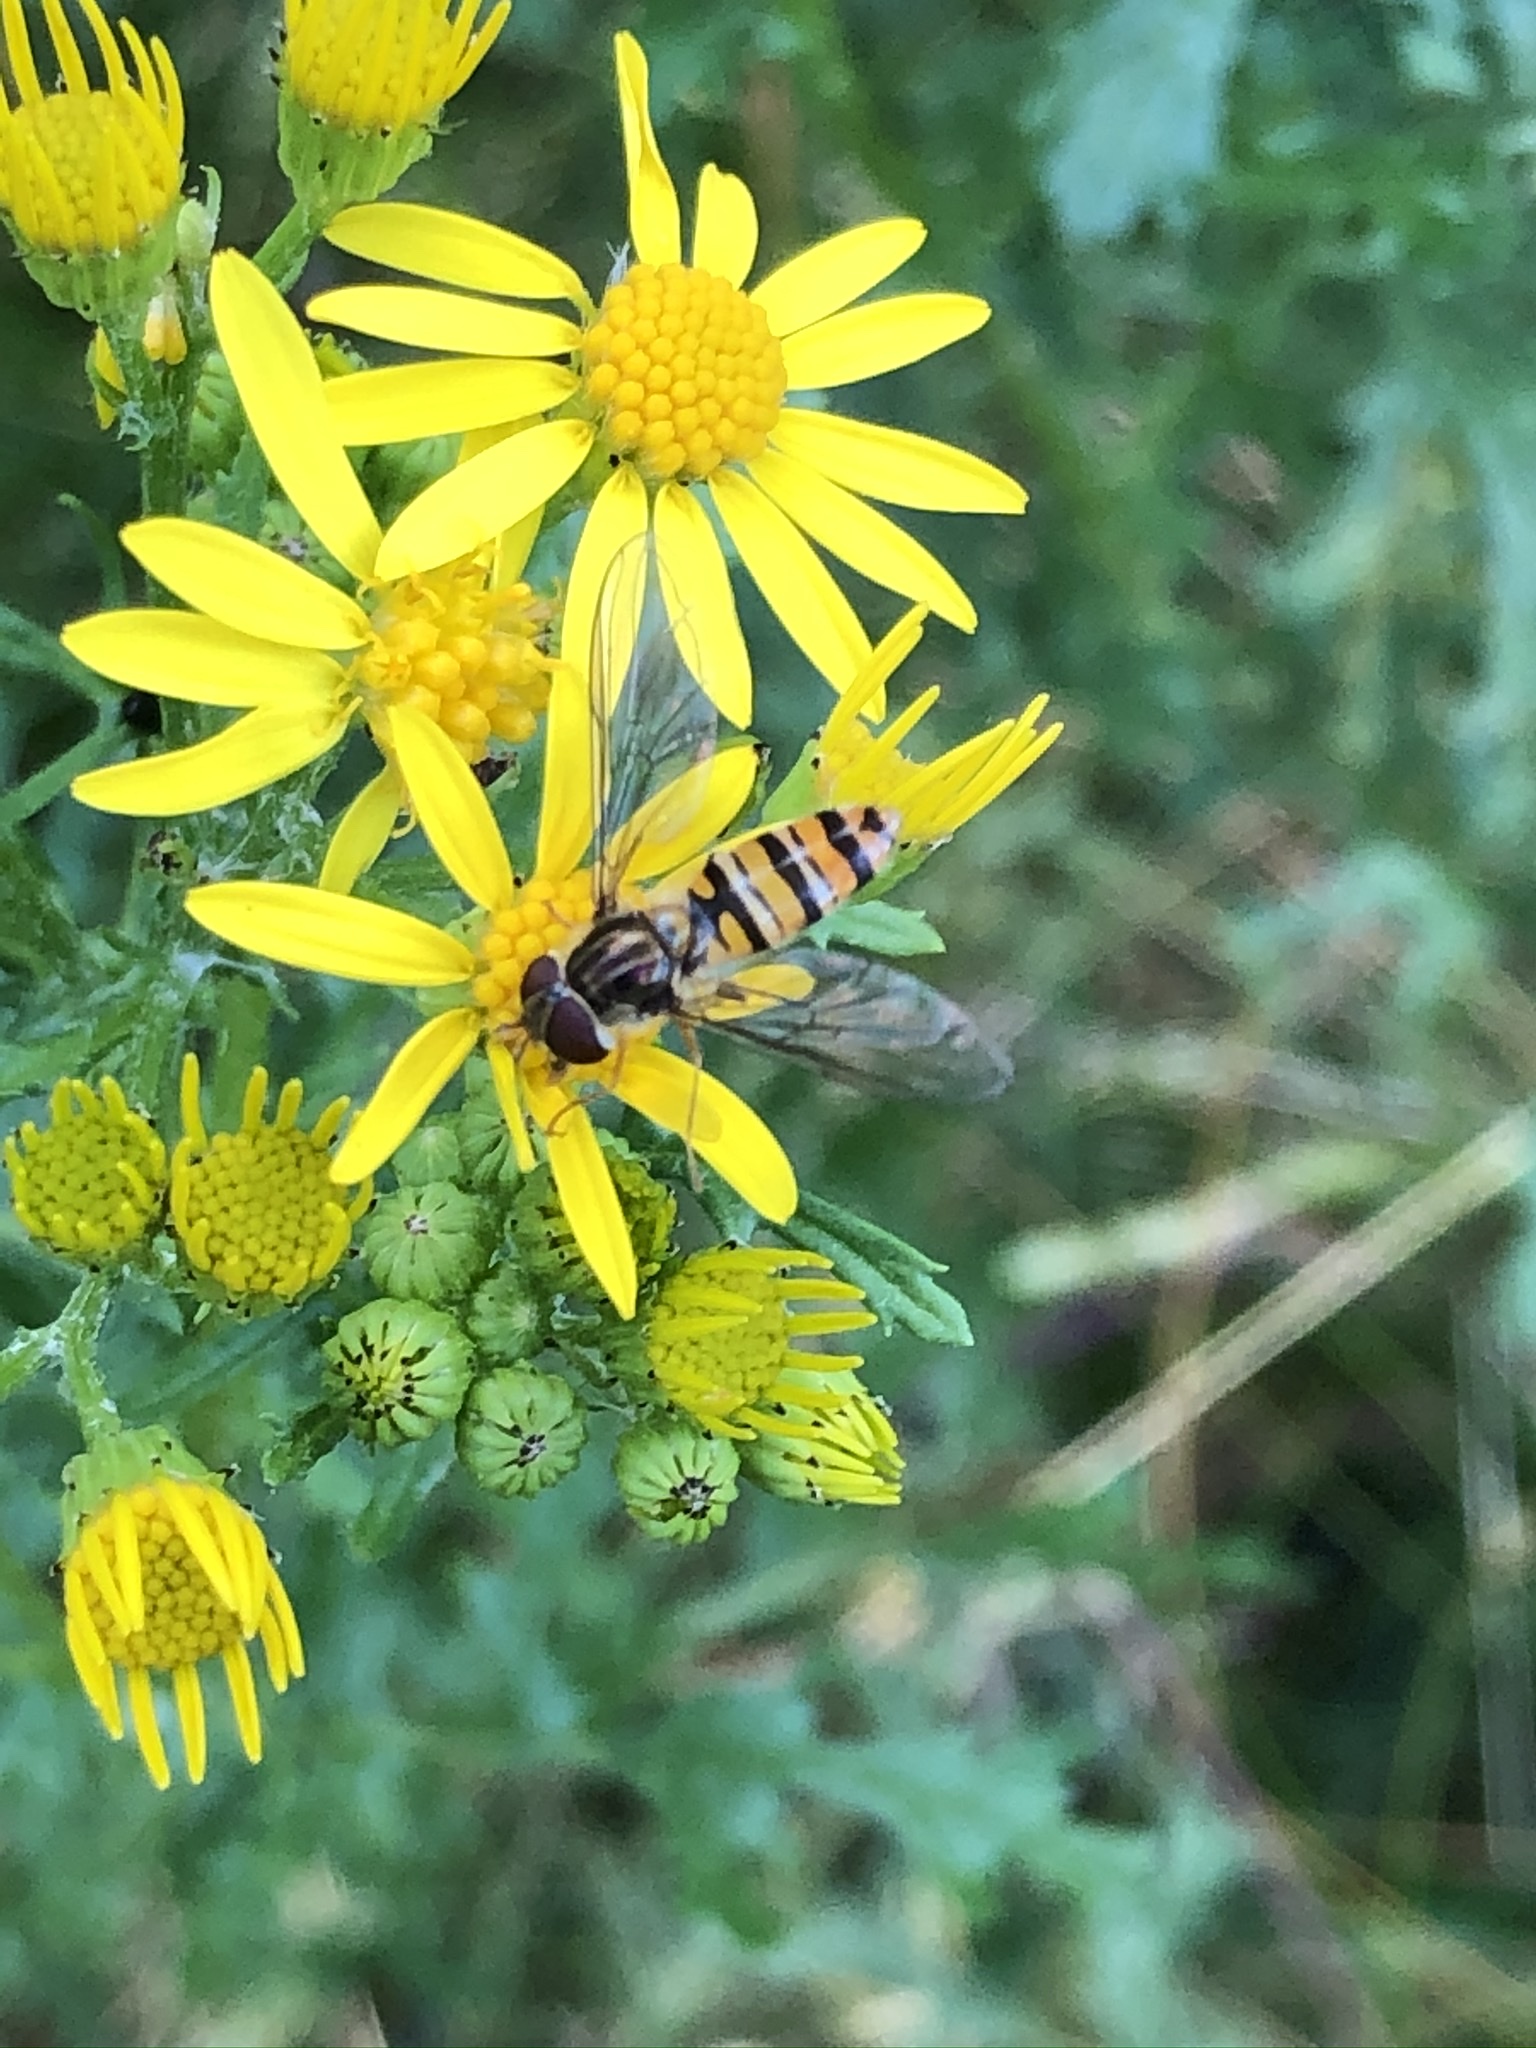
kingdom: Animalia
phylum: Arthropoda
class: Insecta
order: Diptera
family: Syrphidae
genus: Episyrphus
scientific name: Episyrphus balteatus
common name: Marmalade hoverfly
